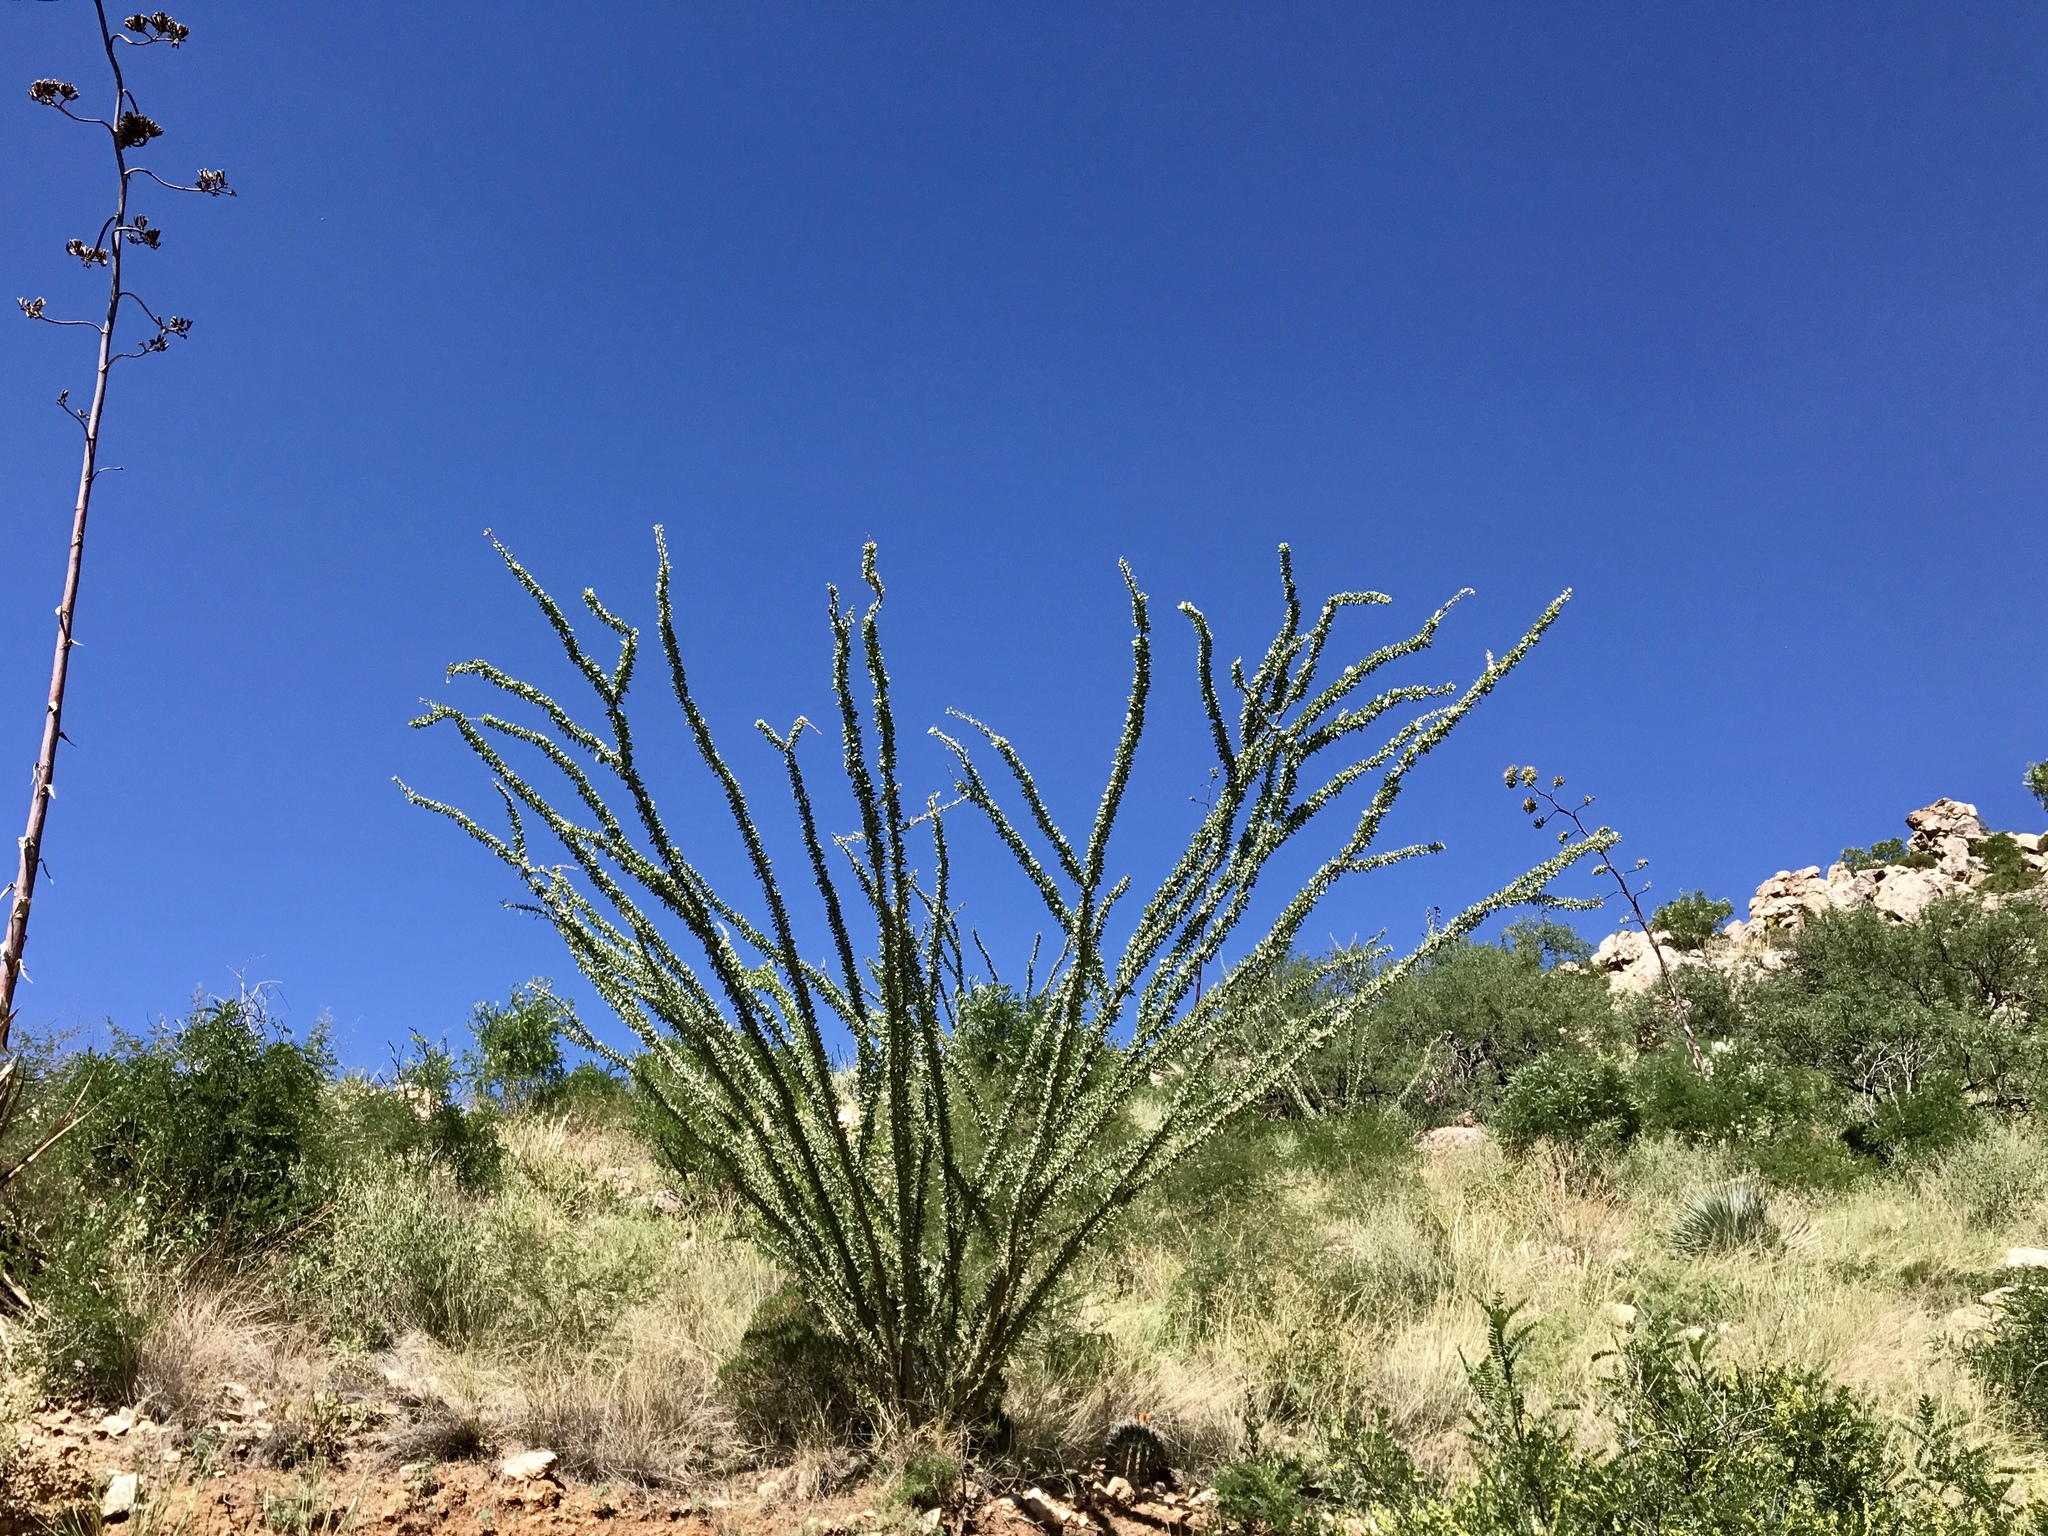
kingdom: Plantae
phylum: Tracheophyta
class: Magnoliopsida
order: Ericales
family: Fouquieriaceae
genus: Fouquieria
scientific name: Fouquieria splendens
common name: Vine-cactus
